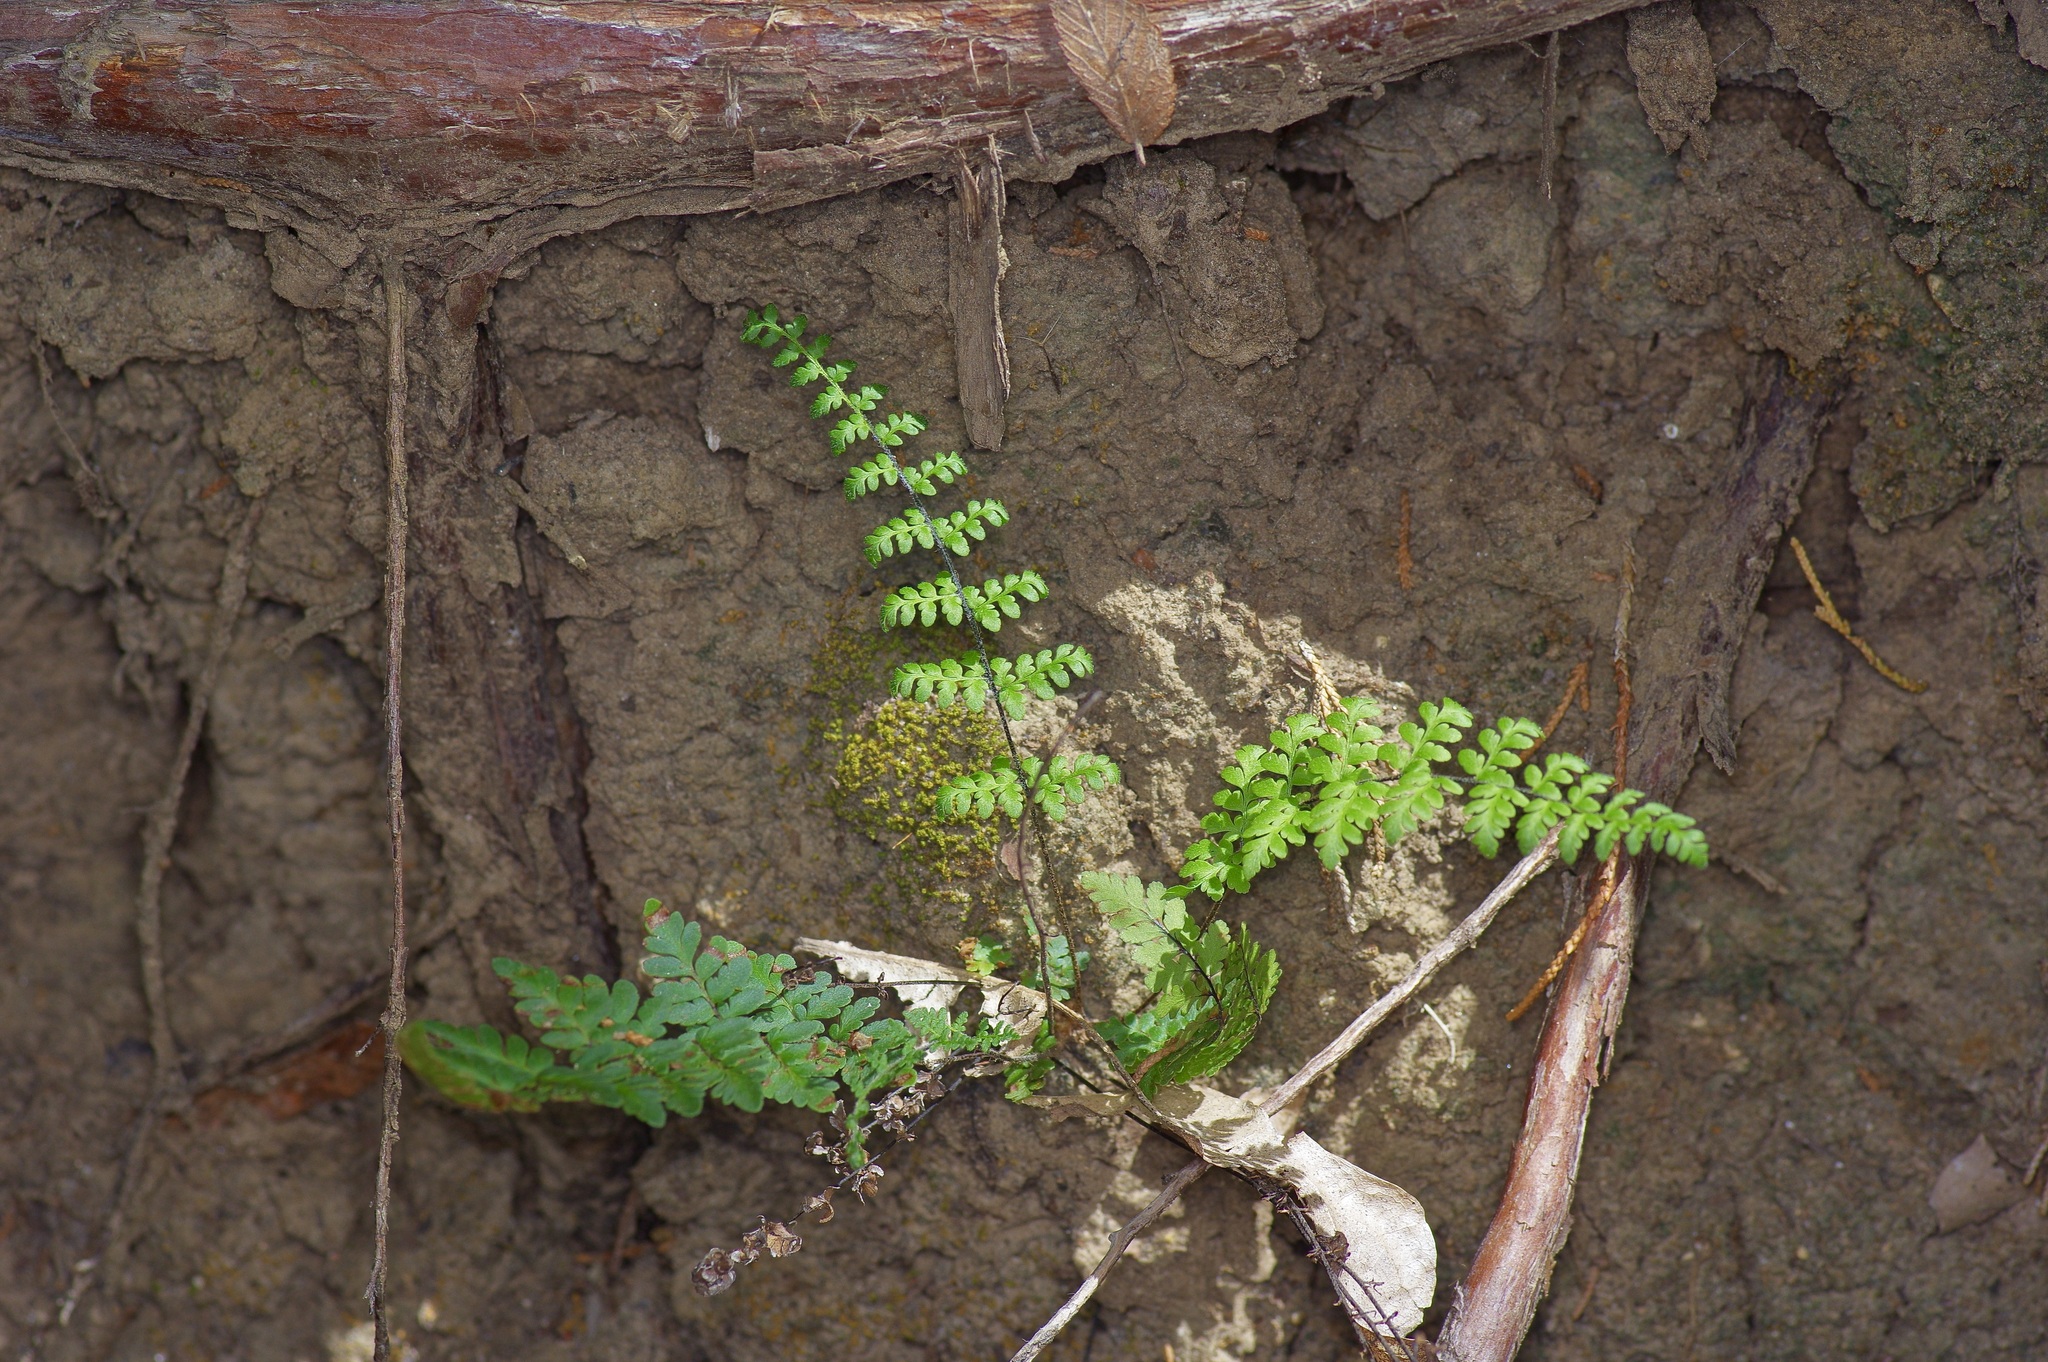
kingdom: Plantae
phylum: Tracheophyta
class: Polypodiopsida
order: Polypodiales
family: Pteridaceae
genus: Myriopteris
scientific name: Myriopteris alabamensis
